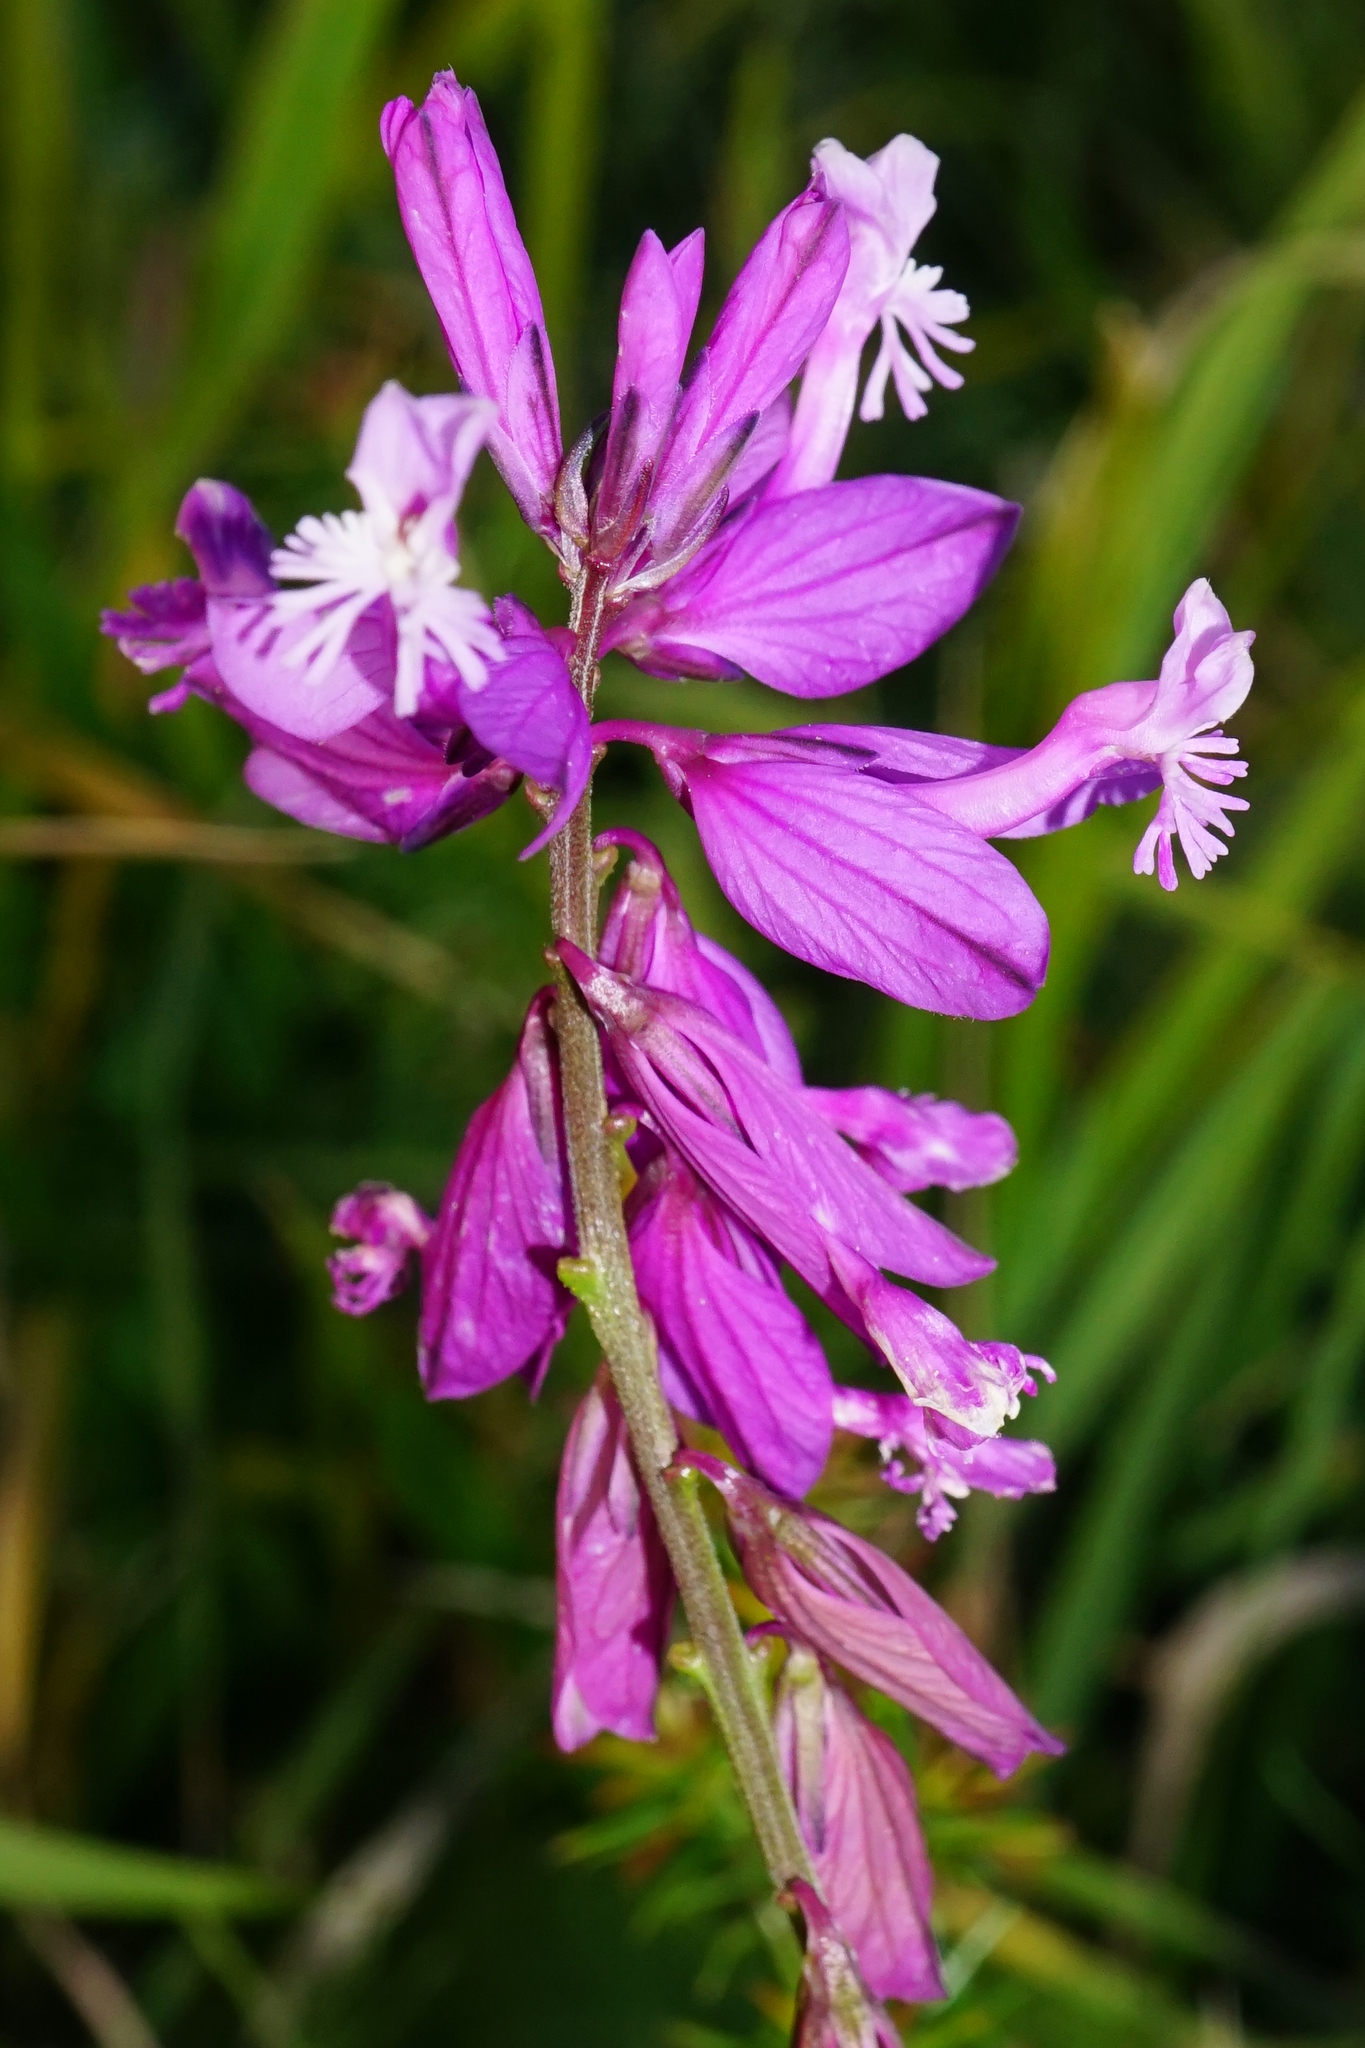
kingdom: Plantae
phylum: Tracheophyta
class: Magnoliopsida
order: Fabales
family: Polygalaceae
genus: Polygala
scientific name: Polygala major
